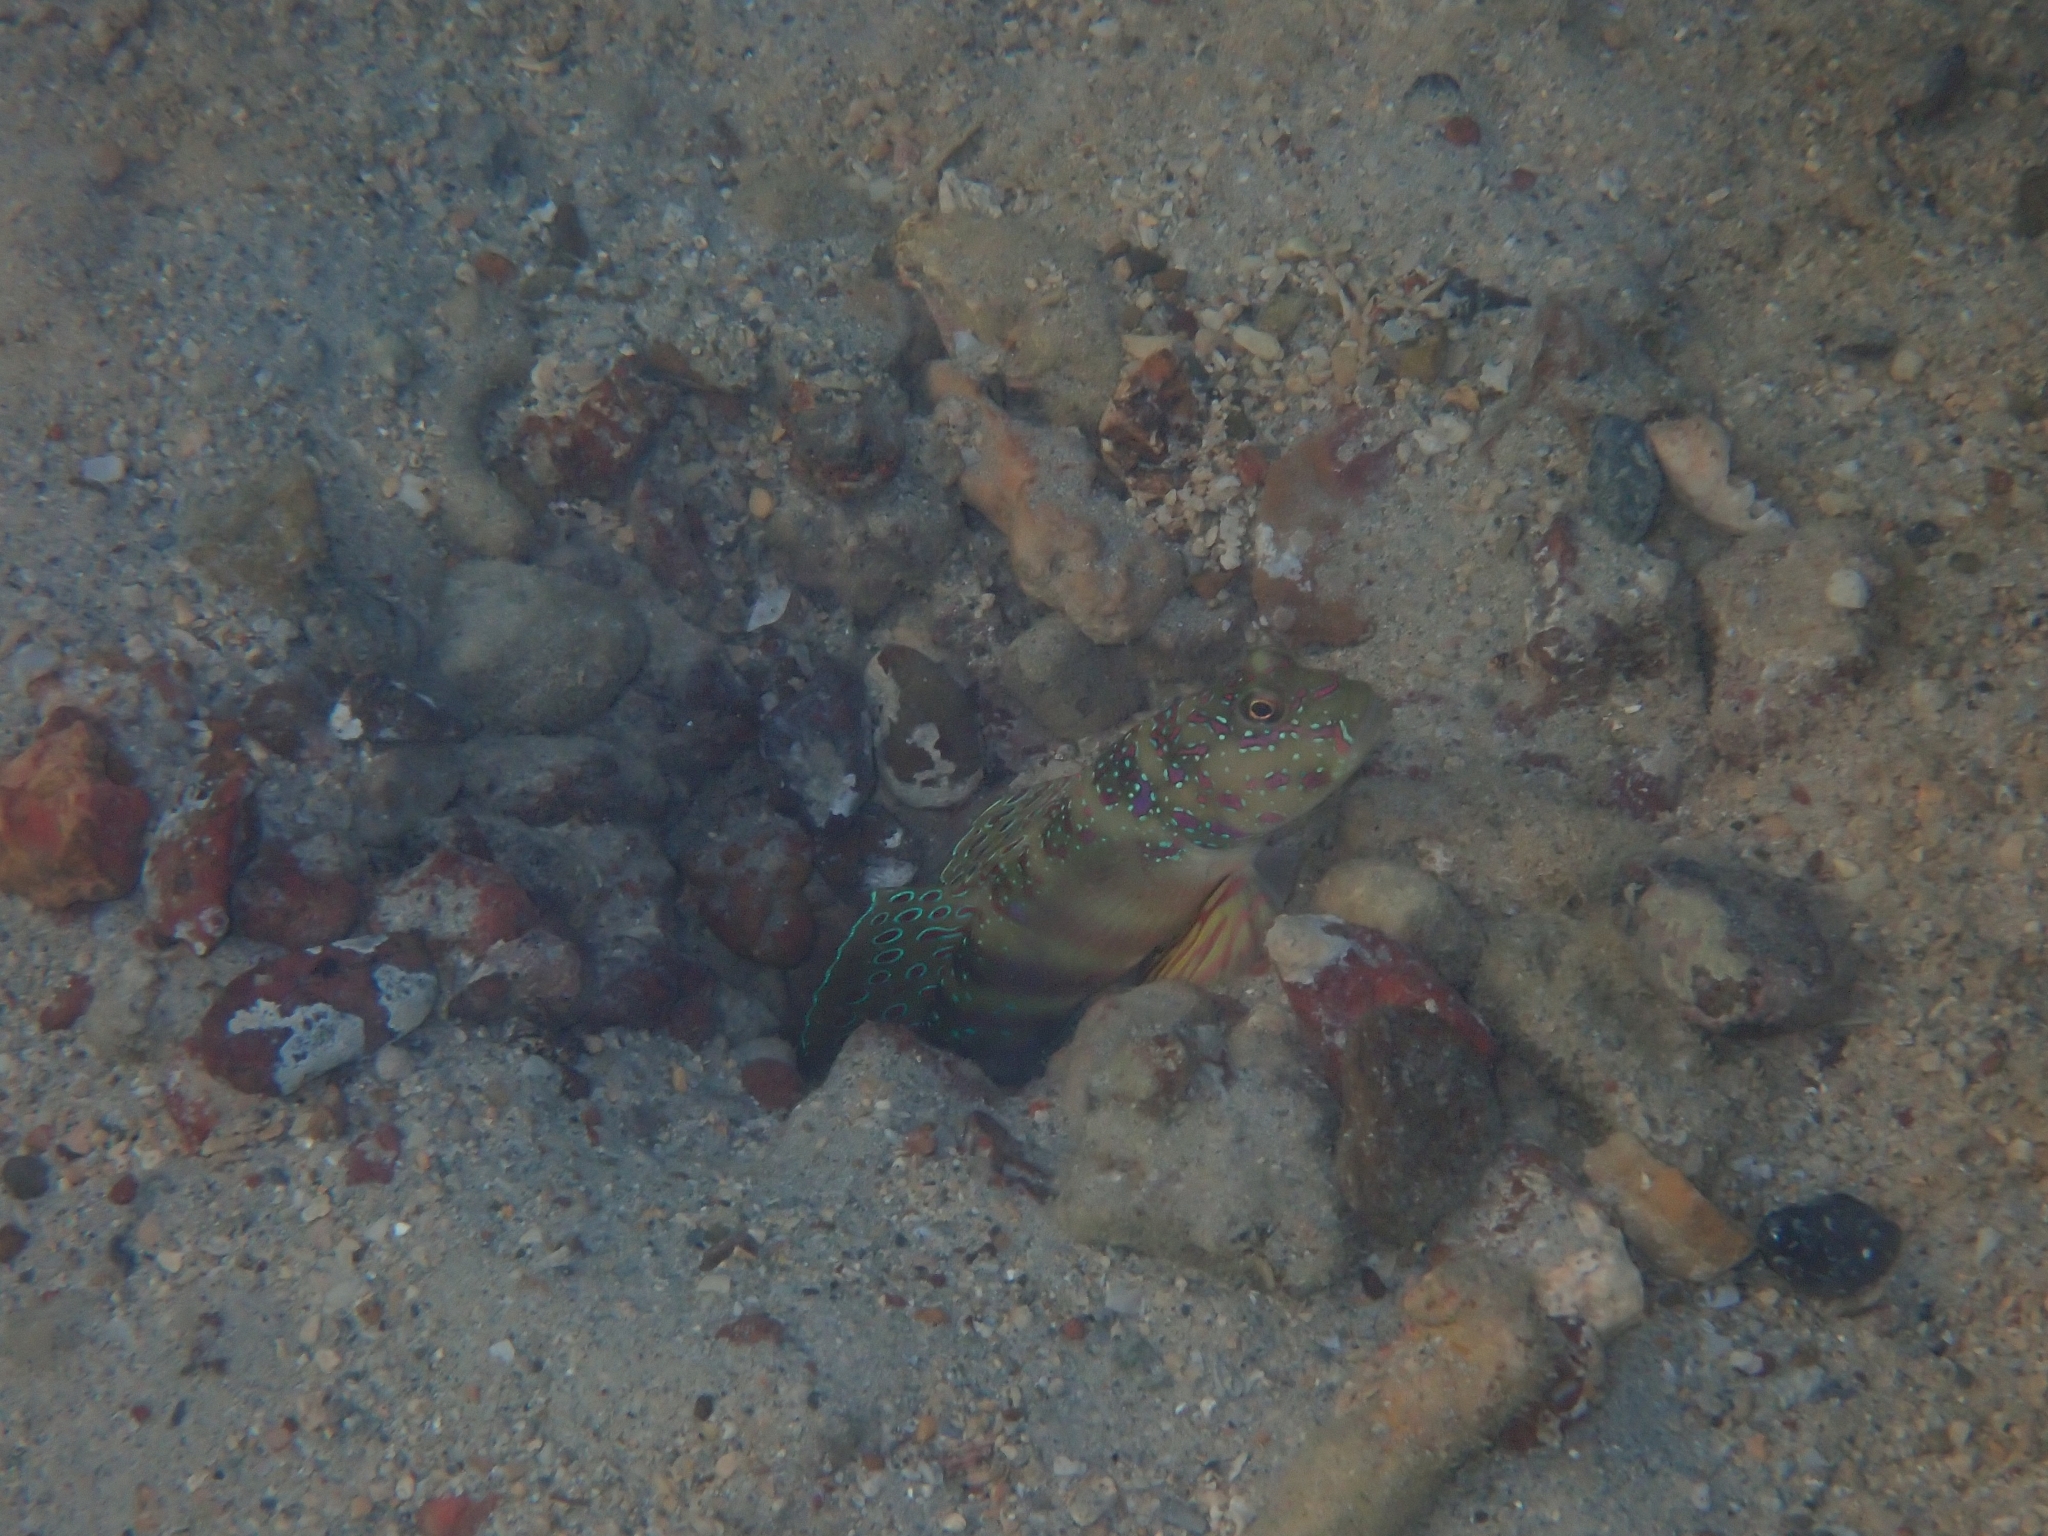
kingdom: Animalia
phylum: Chordata
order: Perciformes
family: Gobiidae
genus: Cryptocentrus
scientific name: Cryptocentrus melanopus
